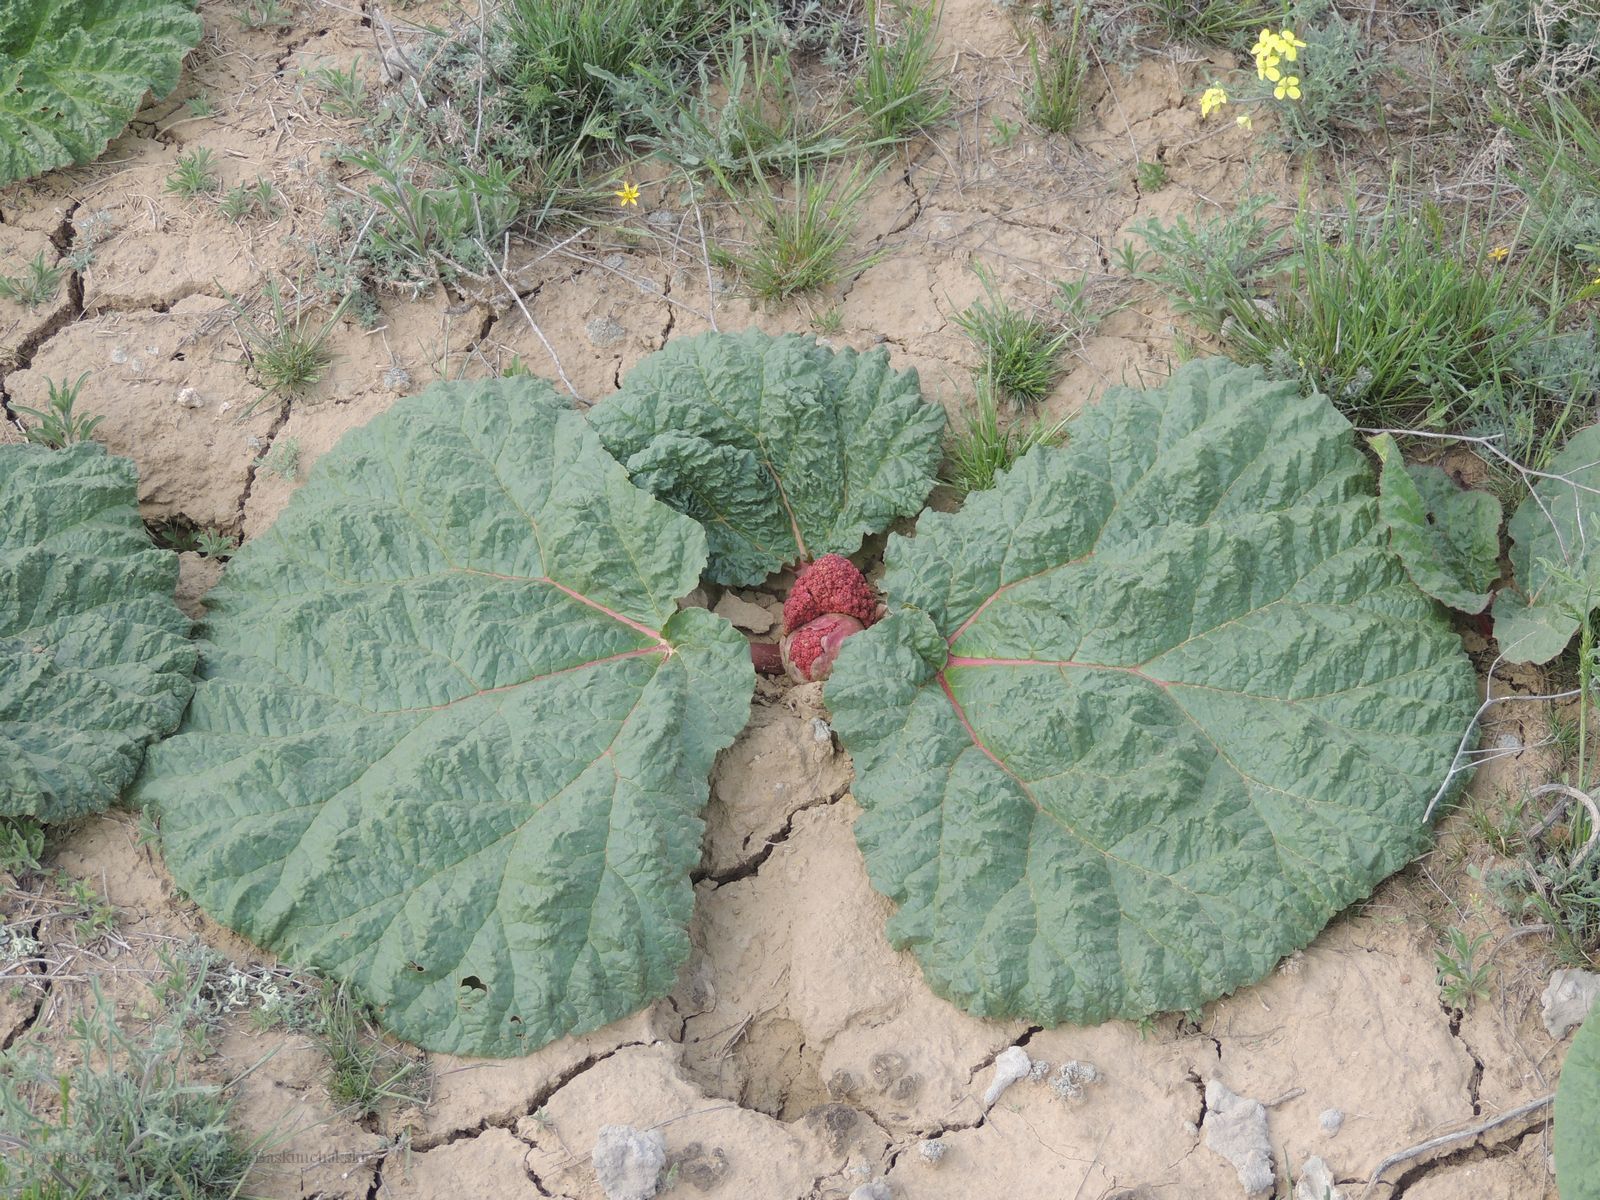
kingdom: Plantae
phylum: Tracheophyta
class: Magnoliopsida
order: Caryophyllales
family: Polygonaceae
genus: Rheum
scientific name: Rheum tataricum
